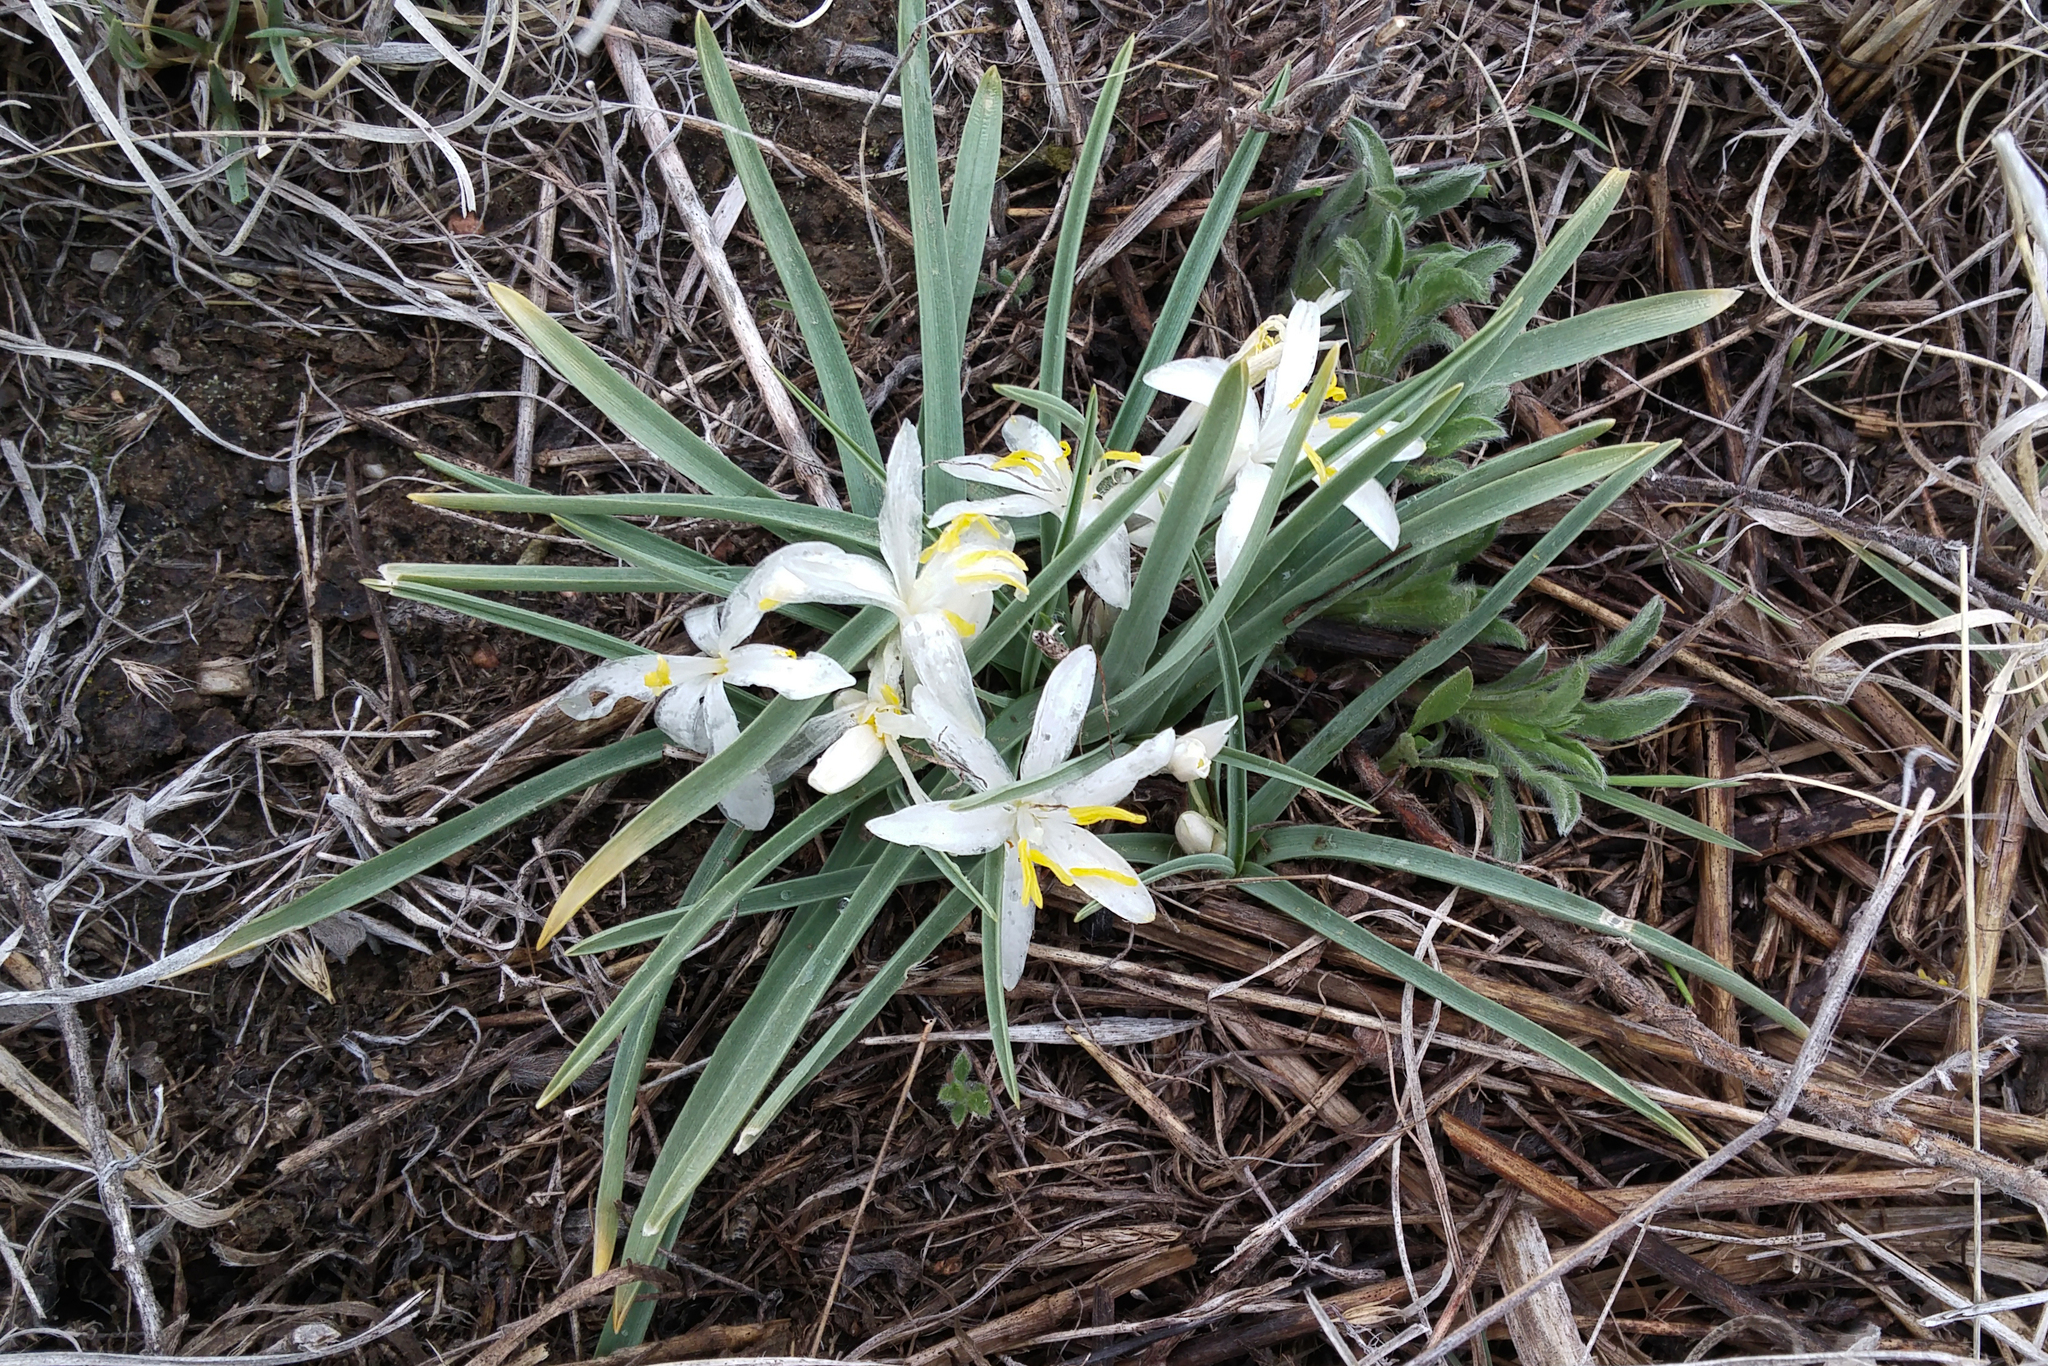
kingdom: Plantae
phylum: Tracheophyta
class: Liliopsida
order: Asparagales
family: Asparagaceae
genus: Leucocrinum
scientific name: Leucocrinum montanum
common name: Mountain-lily
